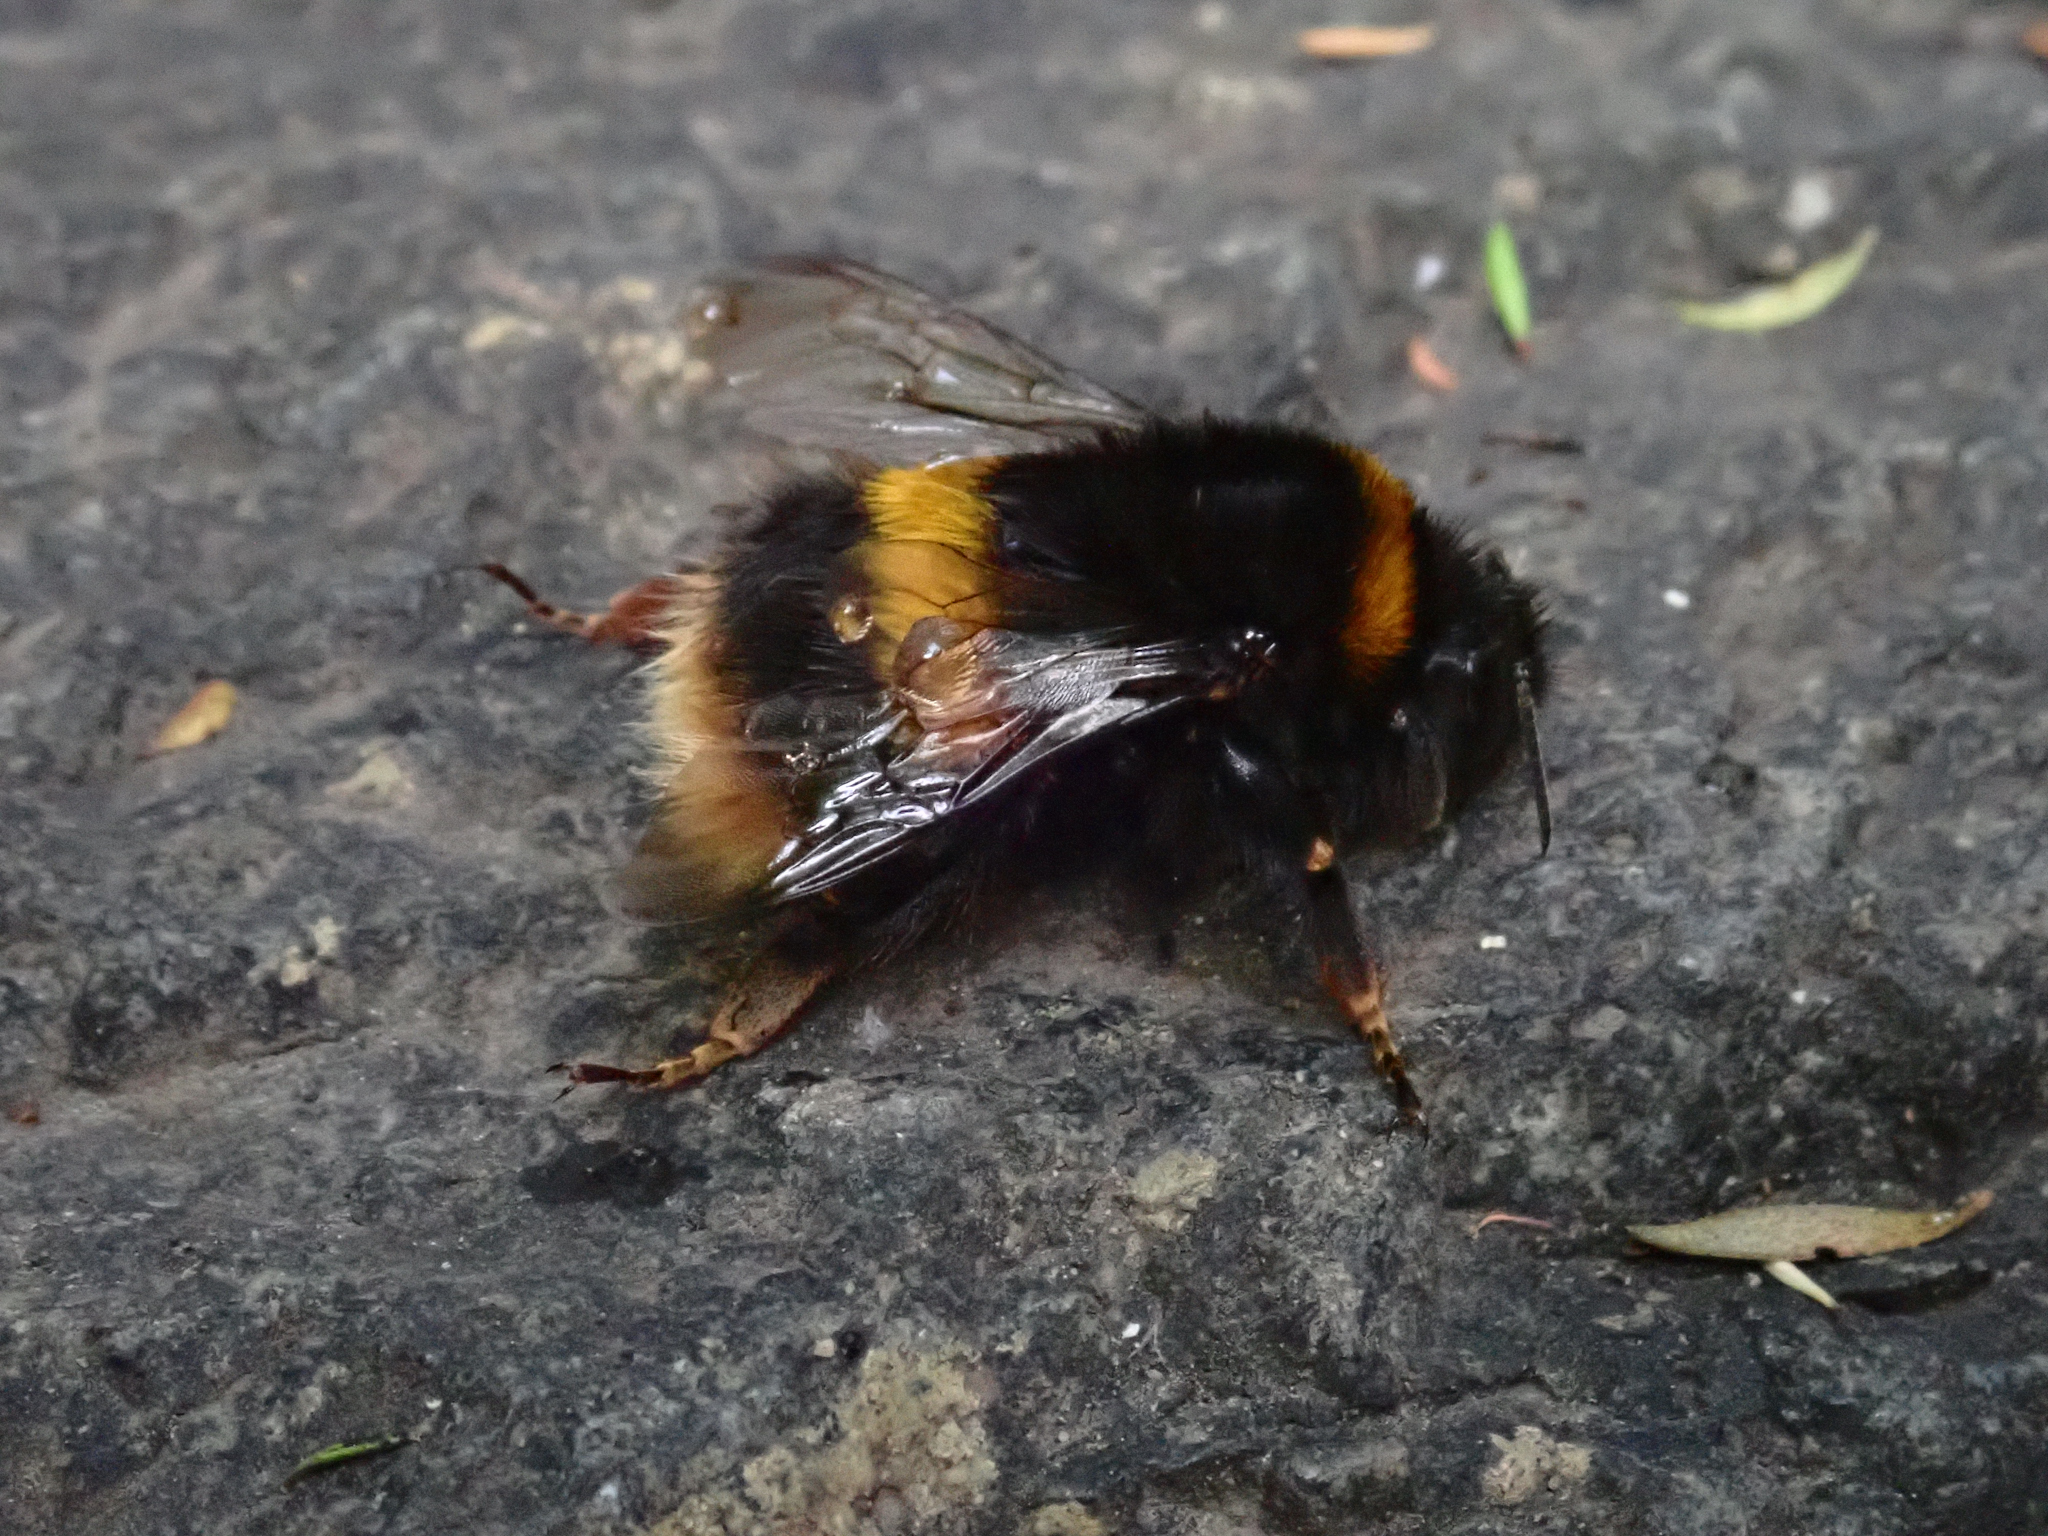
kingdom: Animalia
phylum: Arthropoda
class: Insecta
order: Hymenoptera
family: Apidae
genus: Bombus
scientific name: Bombus terrestris
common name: Buff-tailed bumblebee
